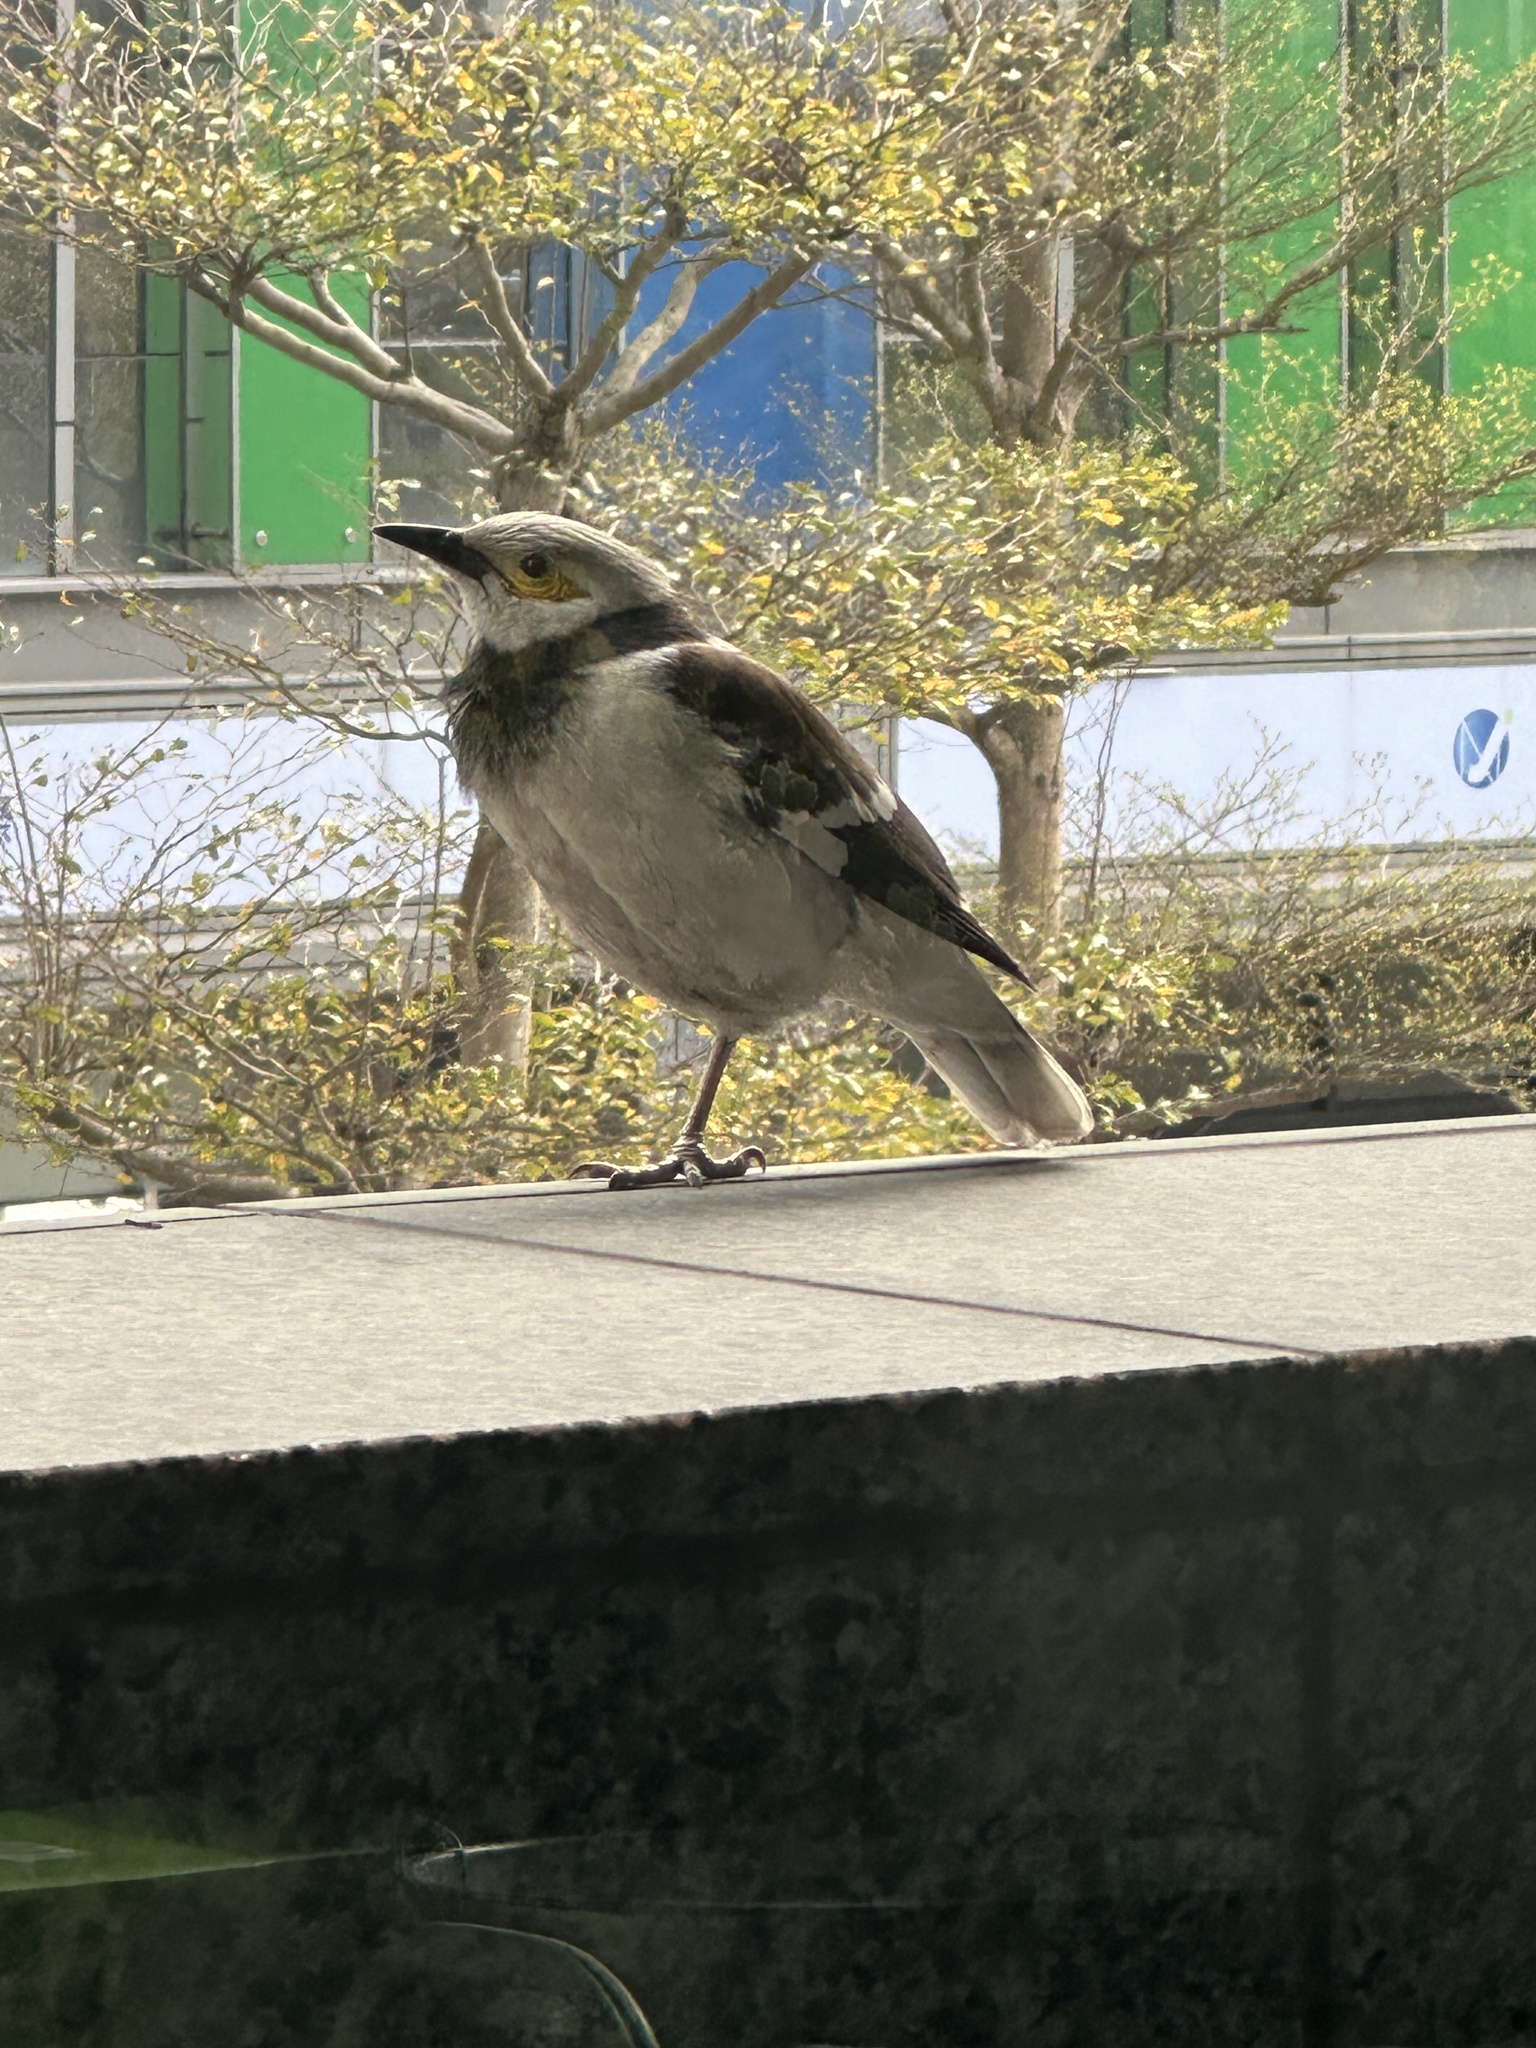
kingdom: Animalia
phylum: Chordata
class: Aves
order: Passeriformes
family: Sturnidae
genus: Gracupica
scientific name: Gracupica nigricollis
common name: Black-collared starling
